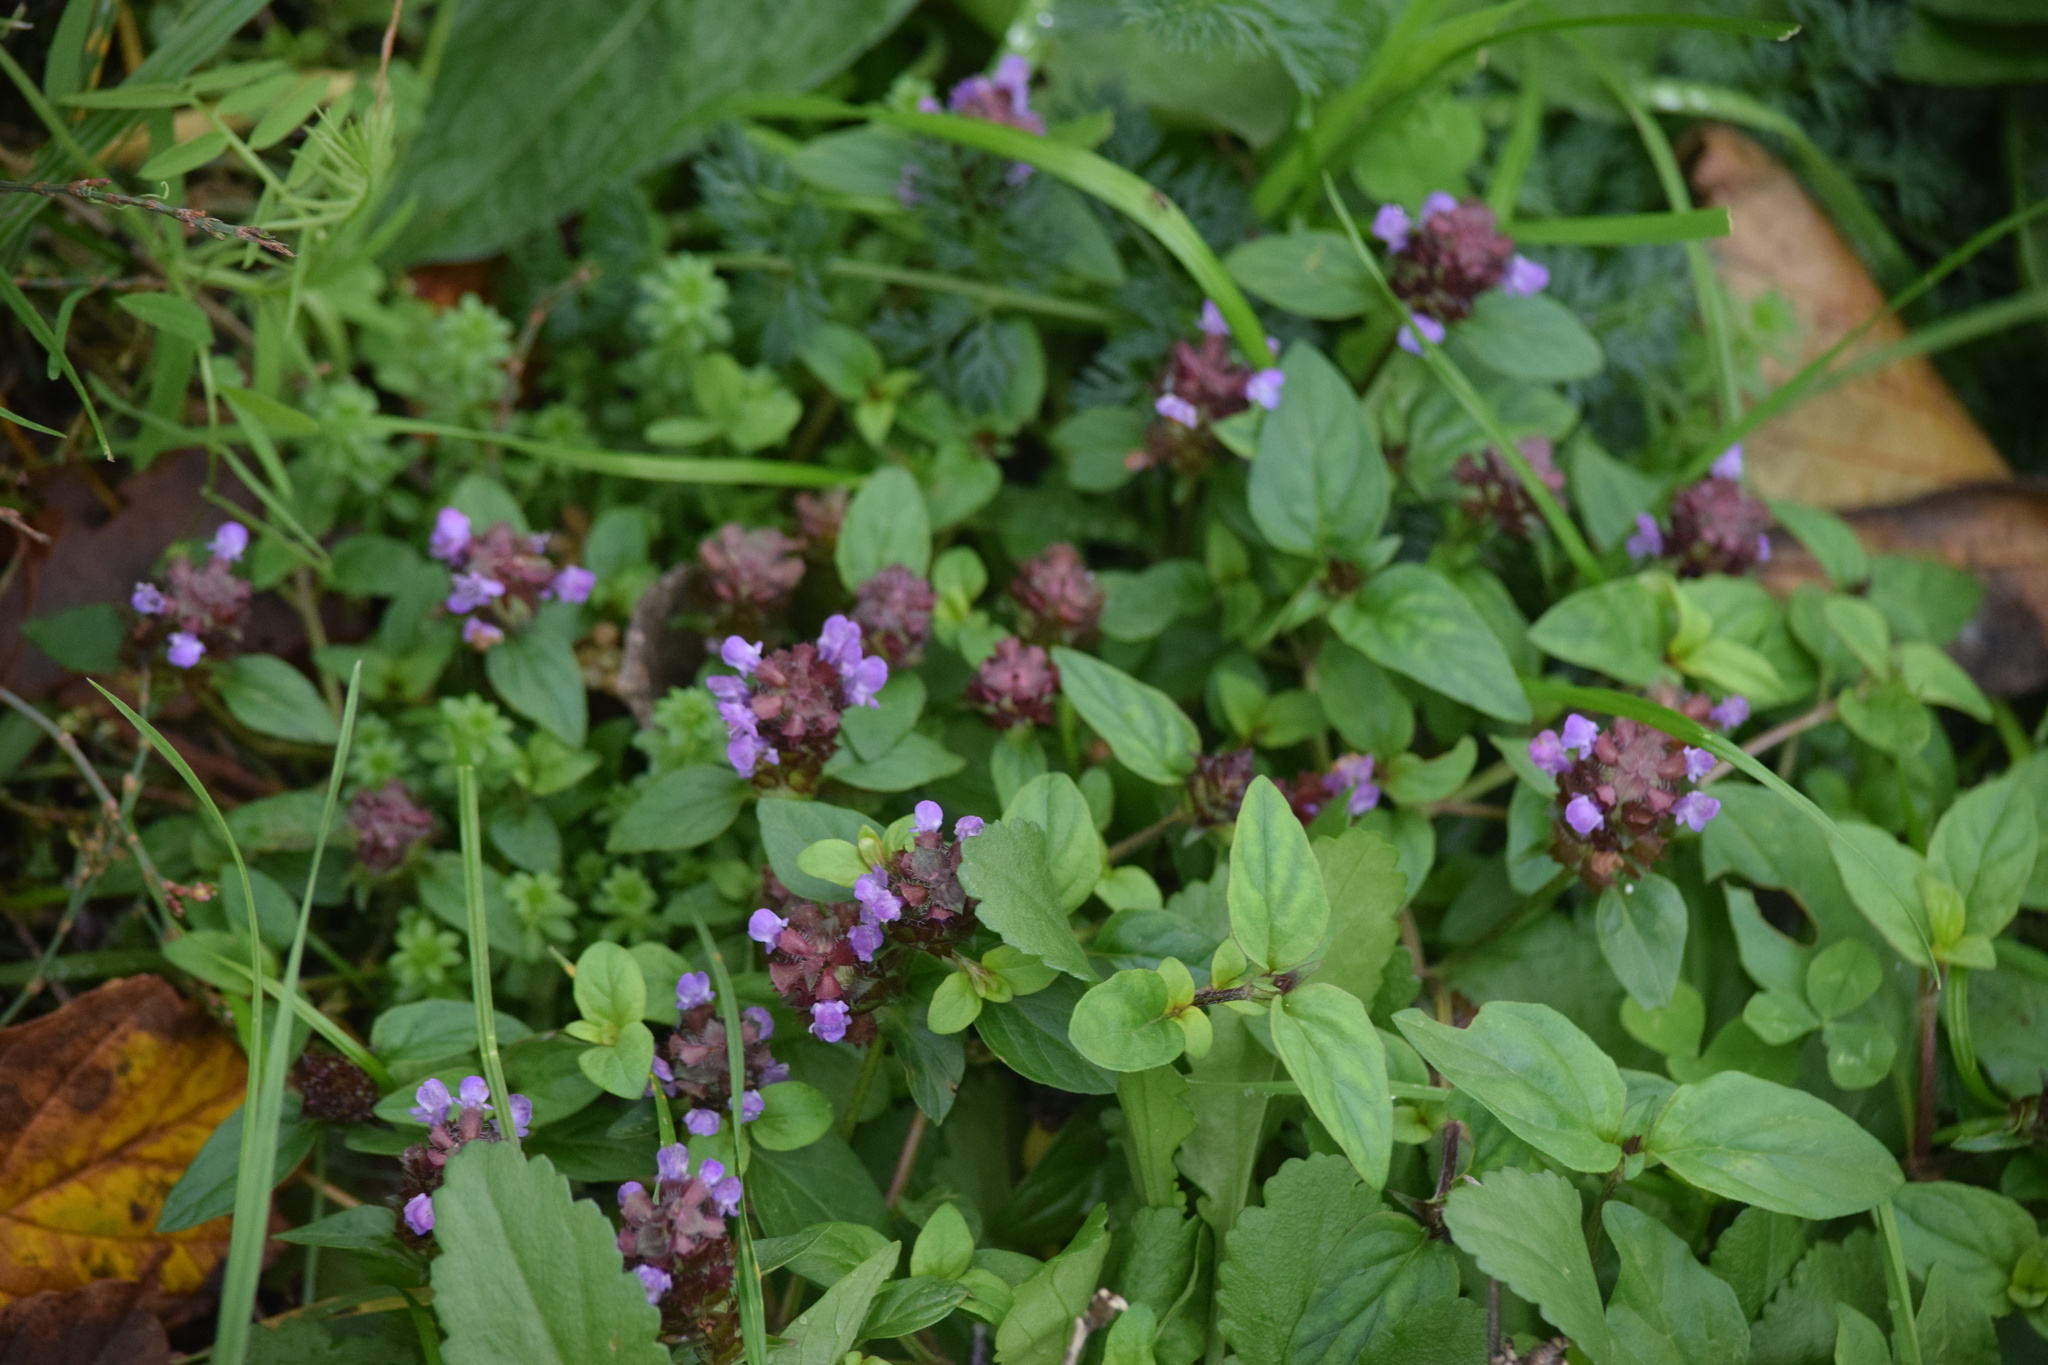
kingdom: Plantae
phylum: Tracheophyta
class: Magnoliopsida
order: Lamiales
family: Lamiaceae
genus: Prunella
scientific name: Prunella vulgaris
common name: Heal-all
